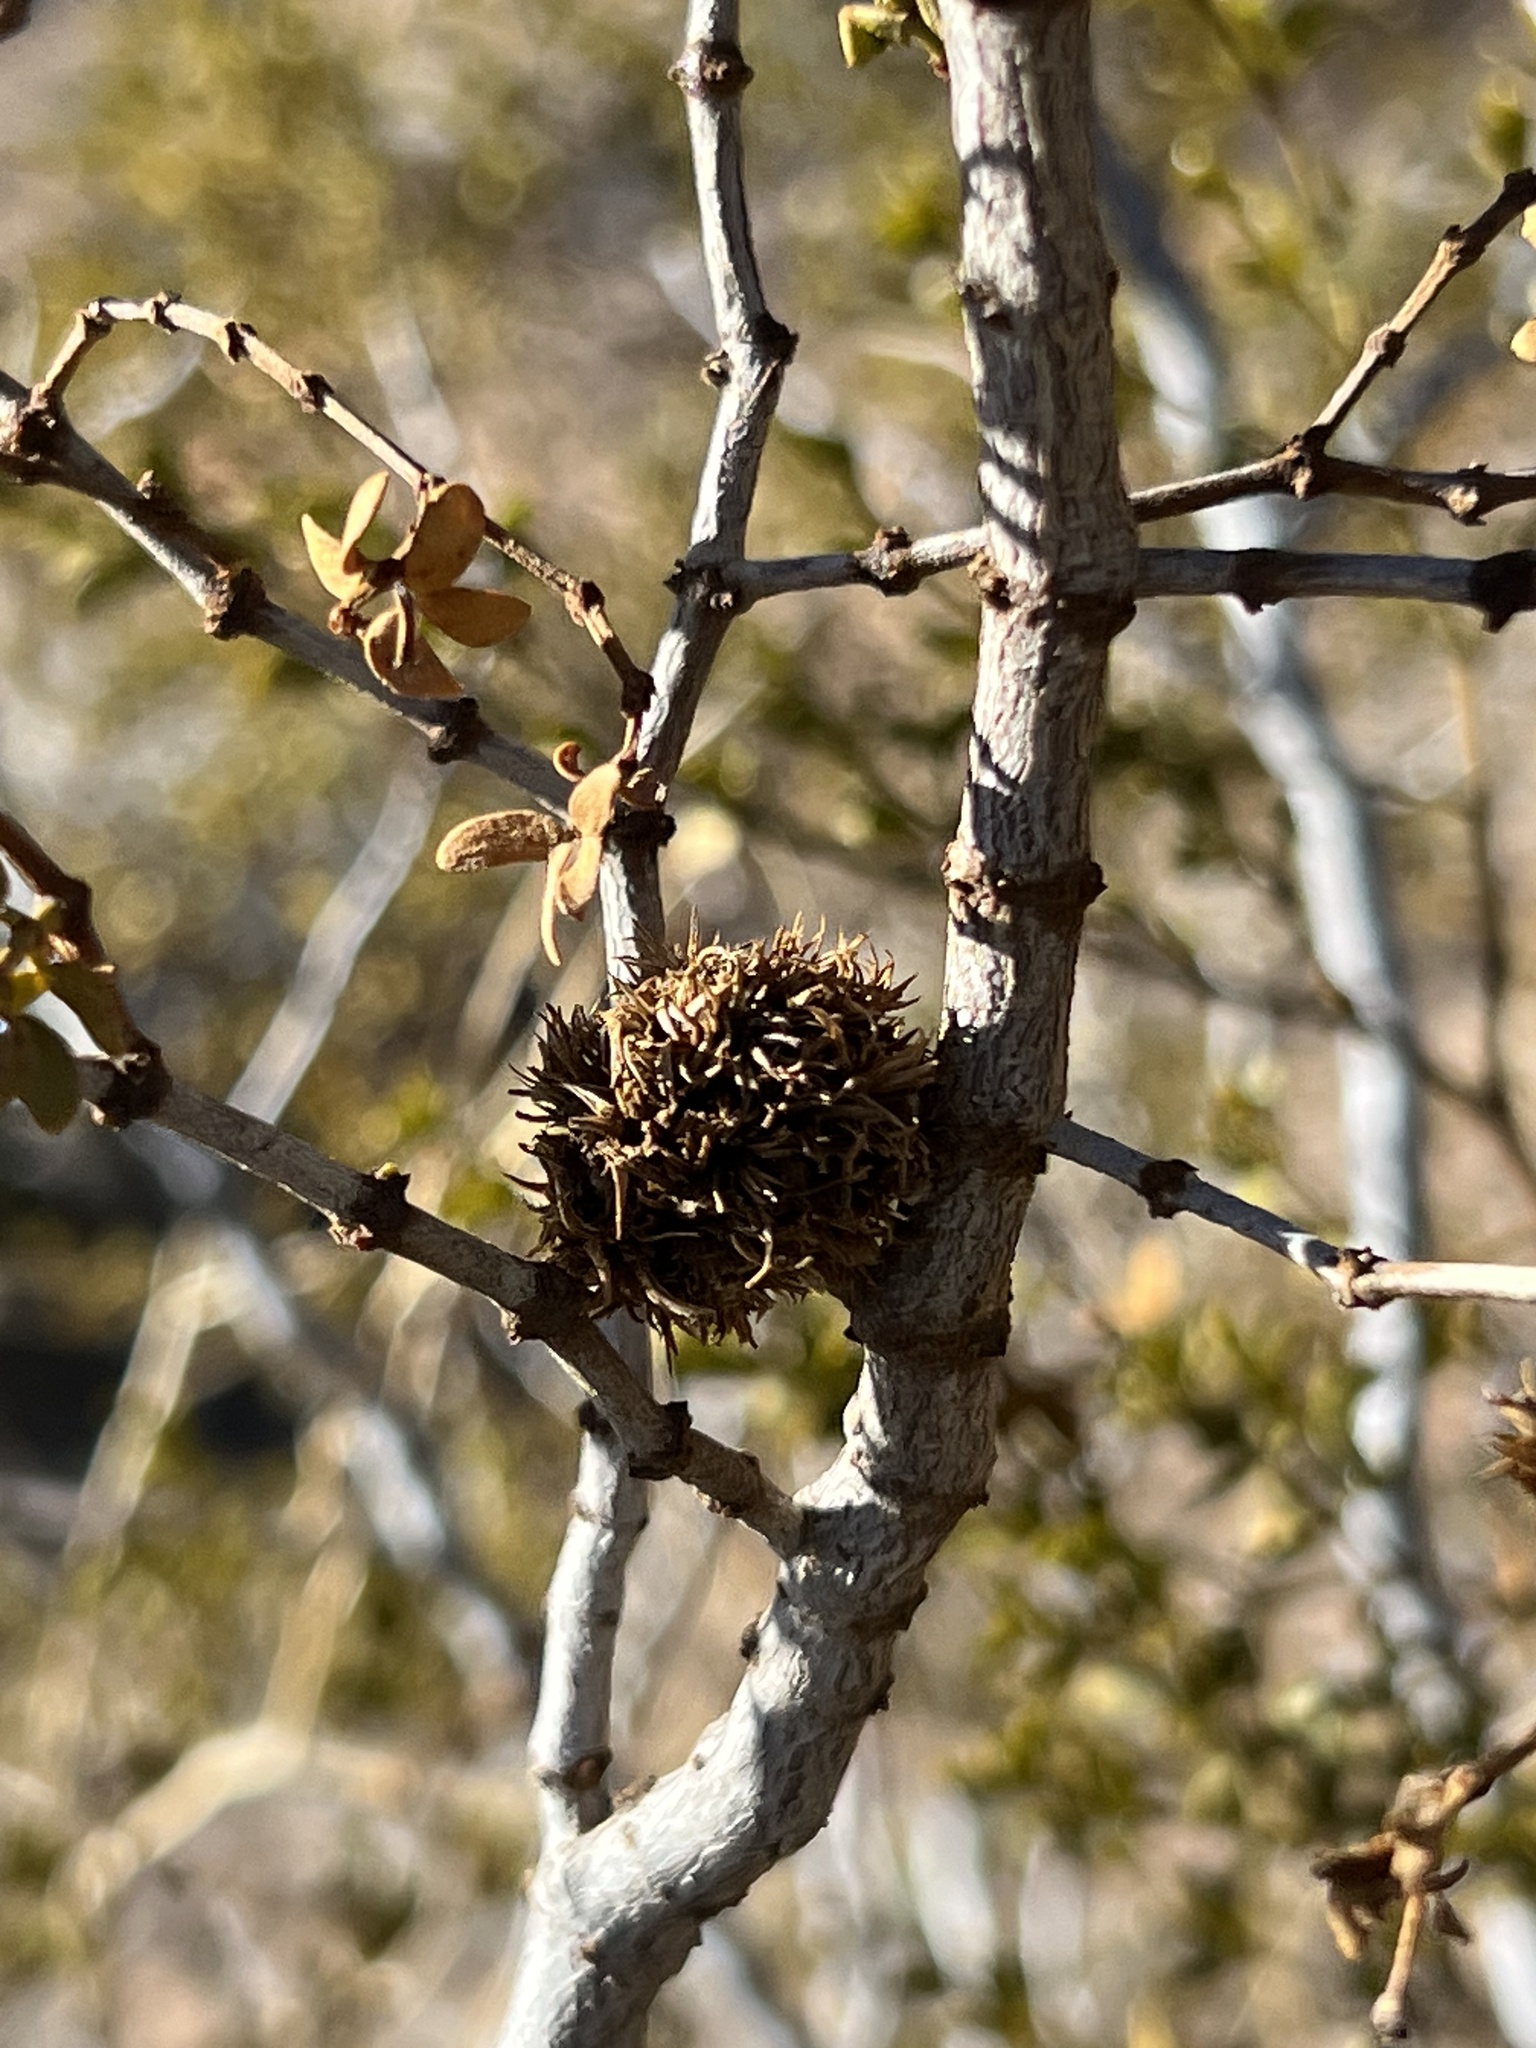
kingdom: Animalia
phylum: Arthropoda
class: Insecta
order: Diptera
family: Cecidomyiidae
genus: Asphondylia
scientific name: Asphondylia auripila
